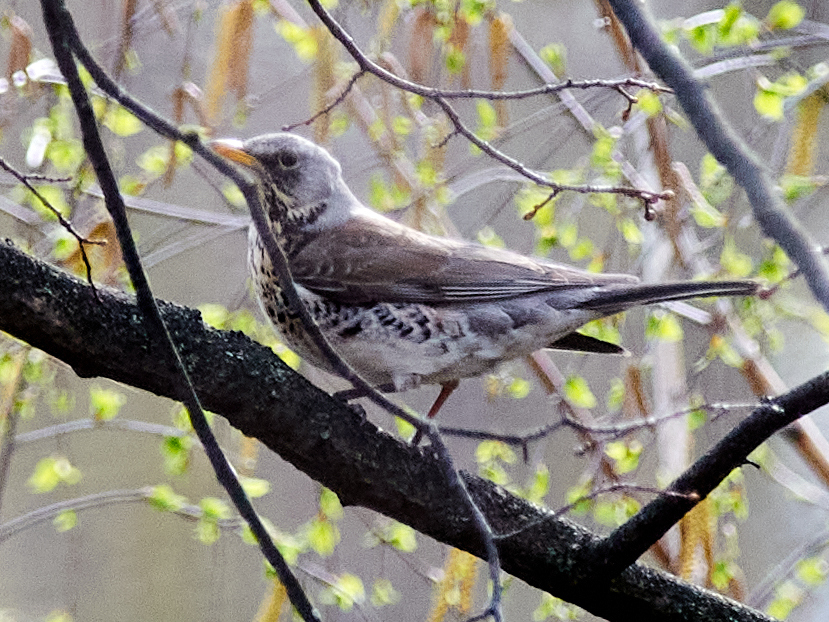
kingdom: Animalia
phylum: Chordata
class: Aves
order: Passeriformes
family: Turdidae
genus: Turdus
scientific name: Turdus pilaris
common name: Fieldfare
